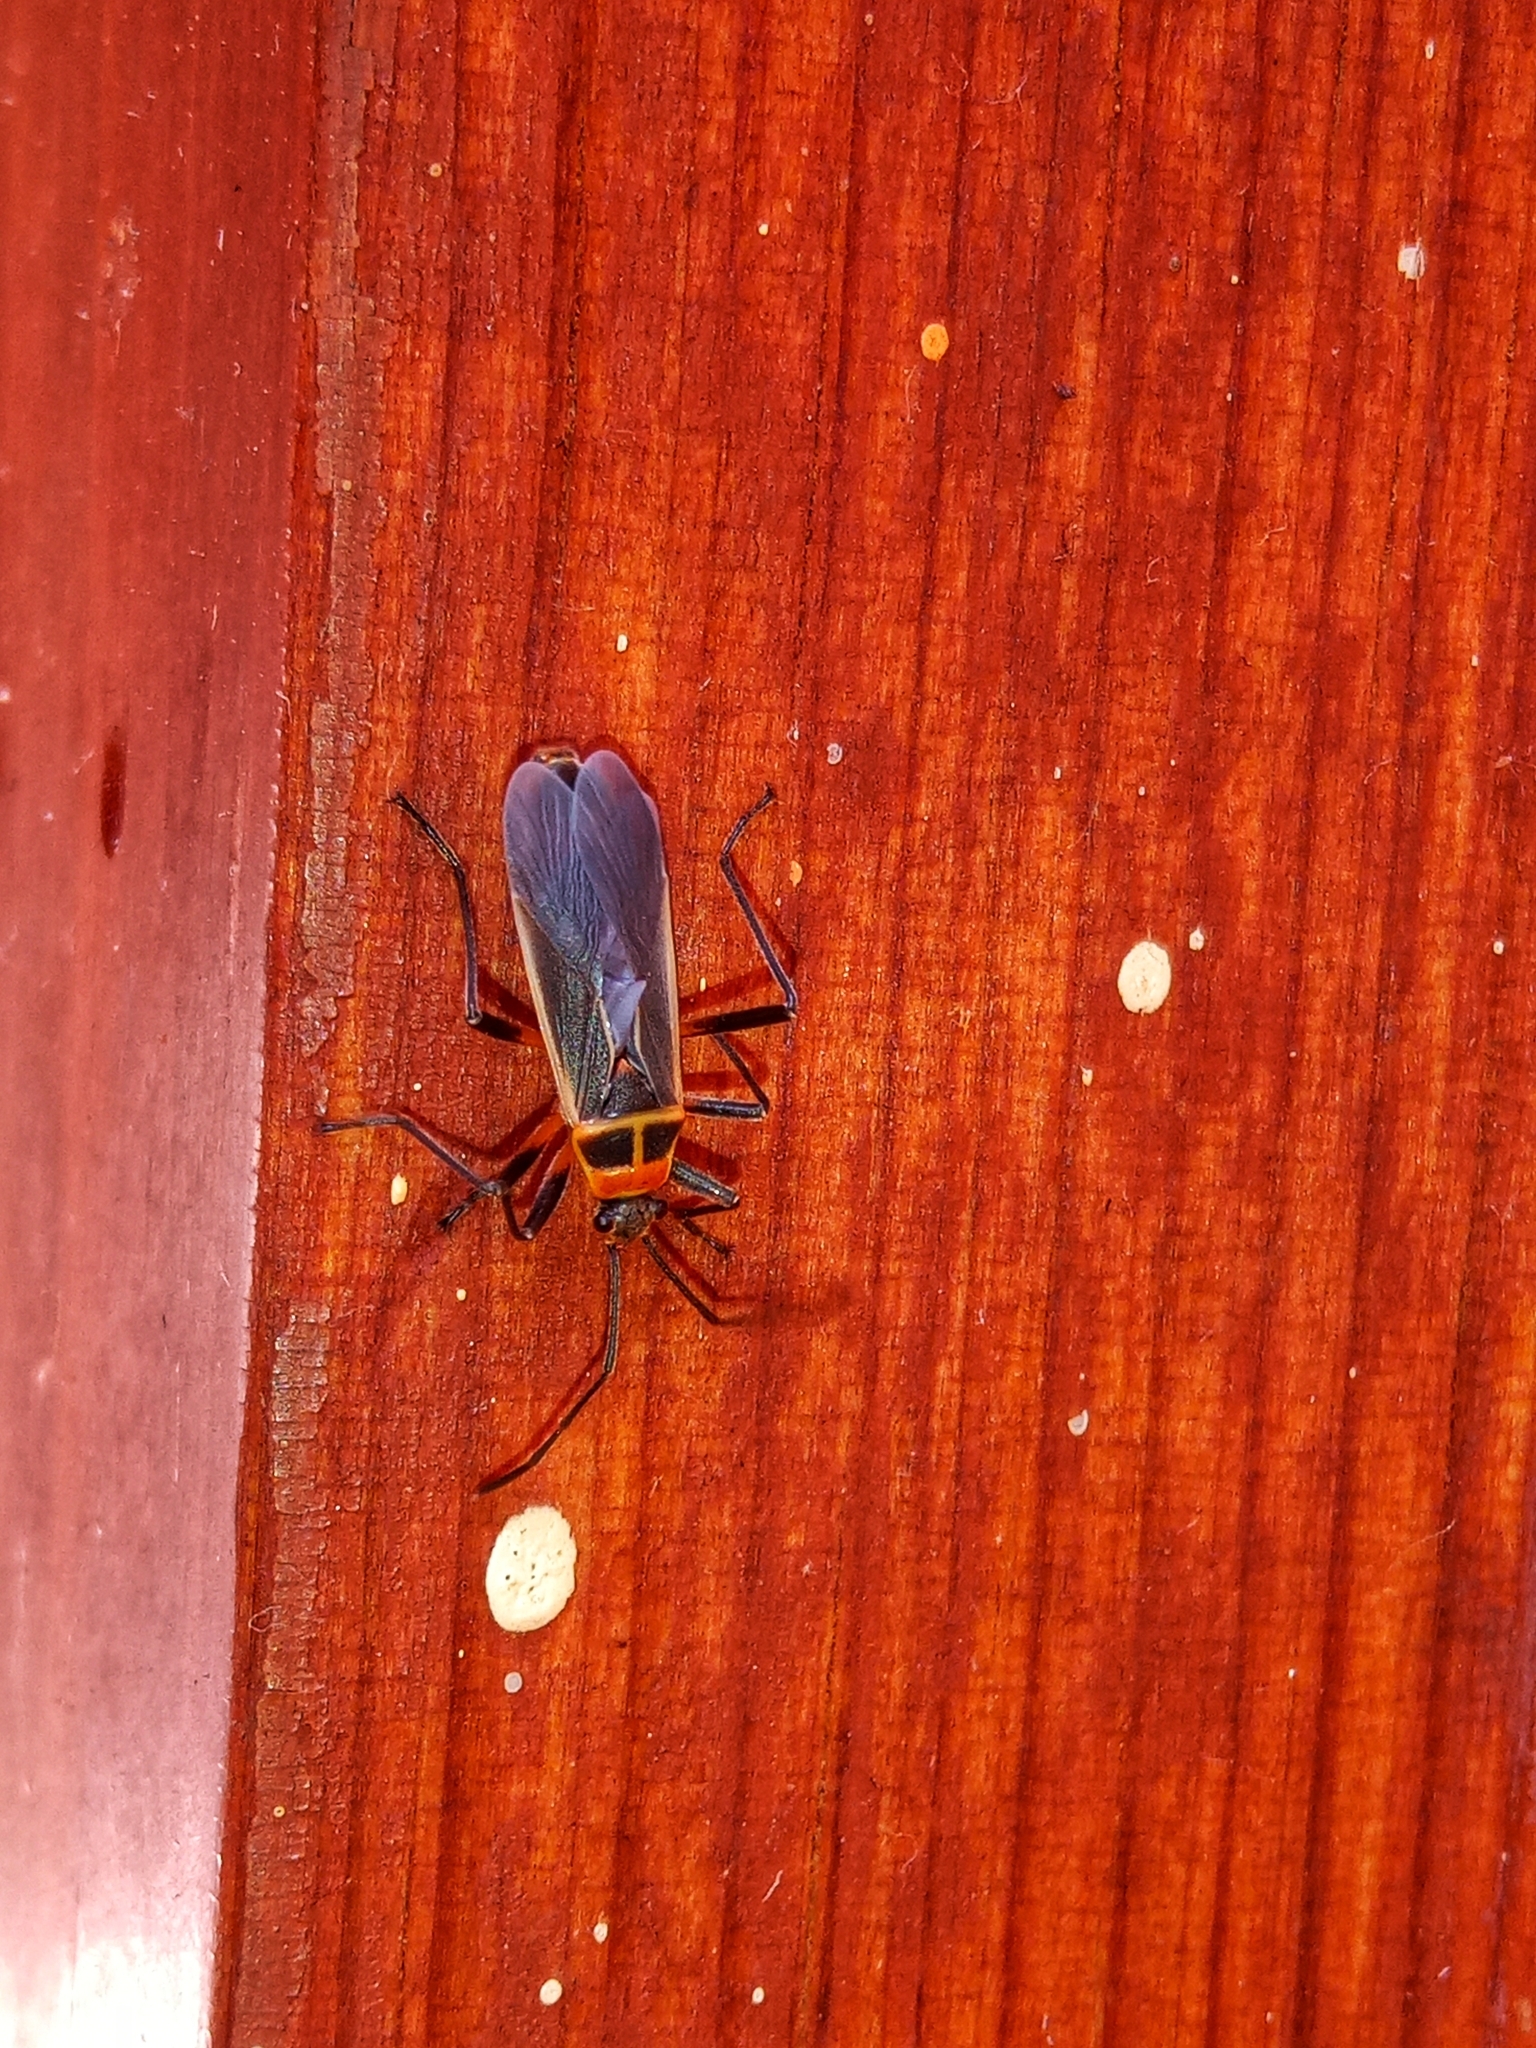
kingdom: Animalia
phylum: Arthropoda
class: Insecta
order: Hemiptera
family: Largidae
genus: Stenomacra
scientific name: Stenomacra marginella
